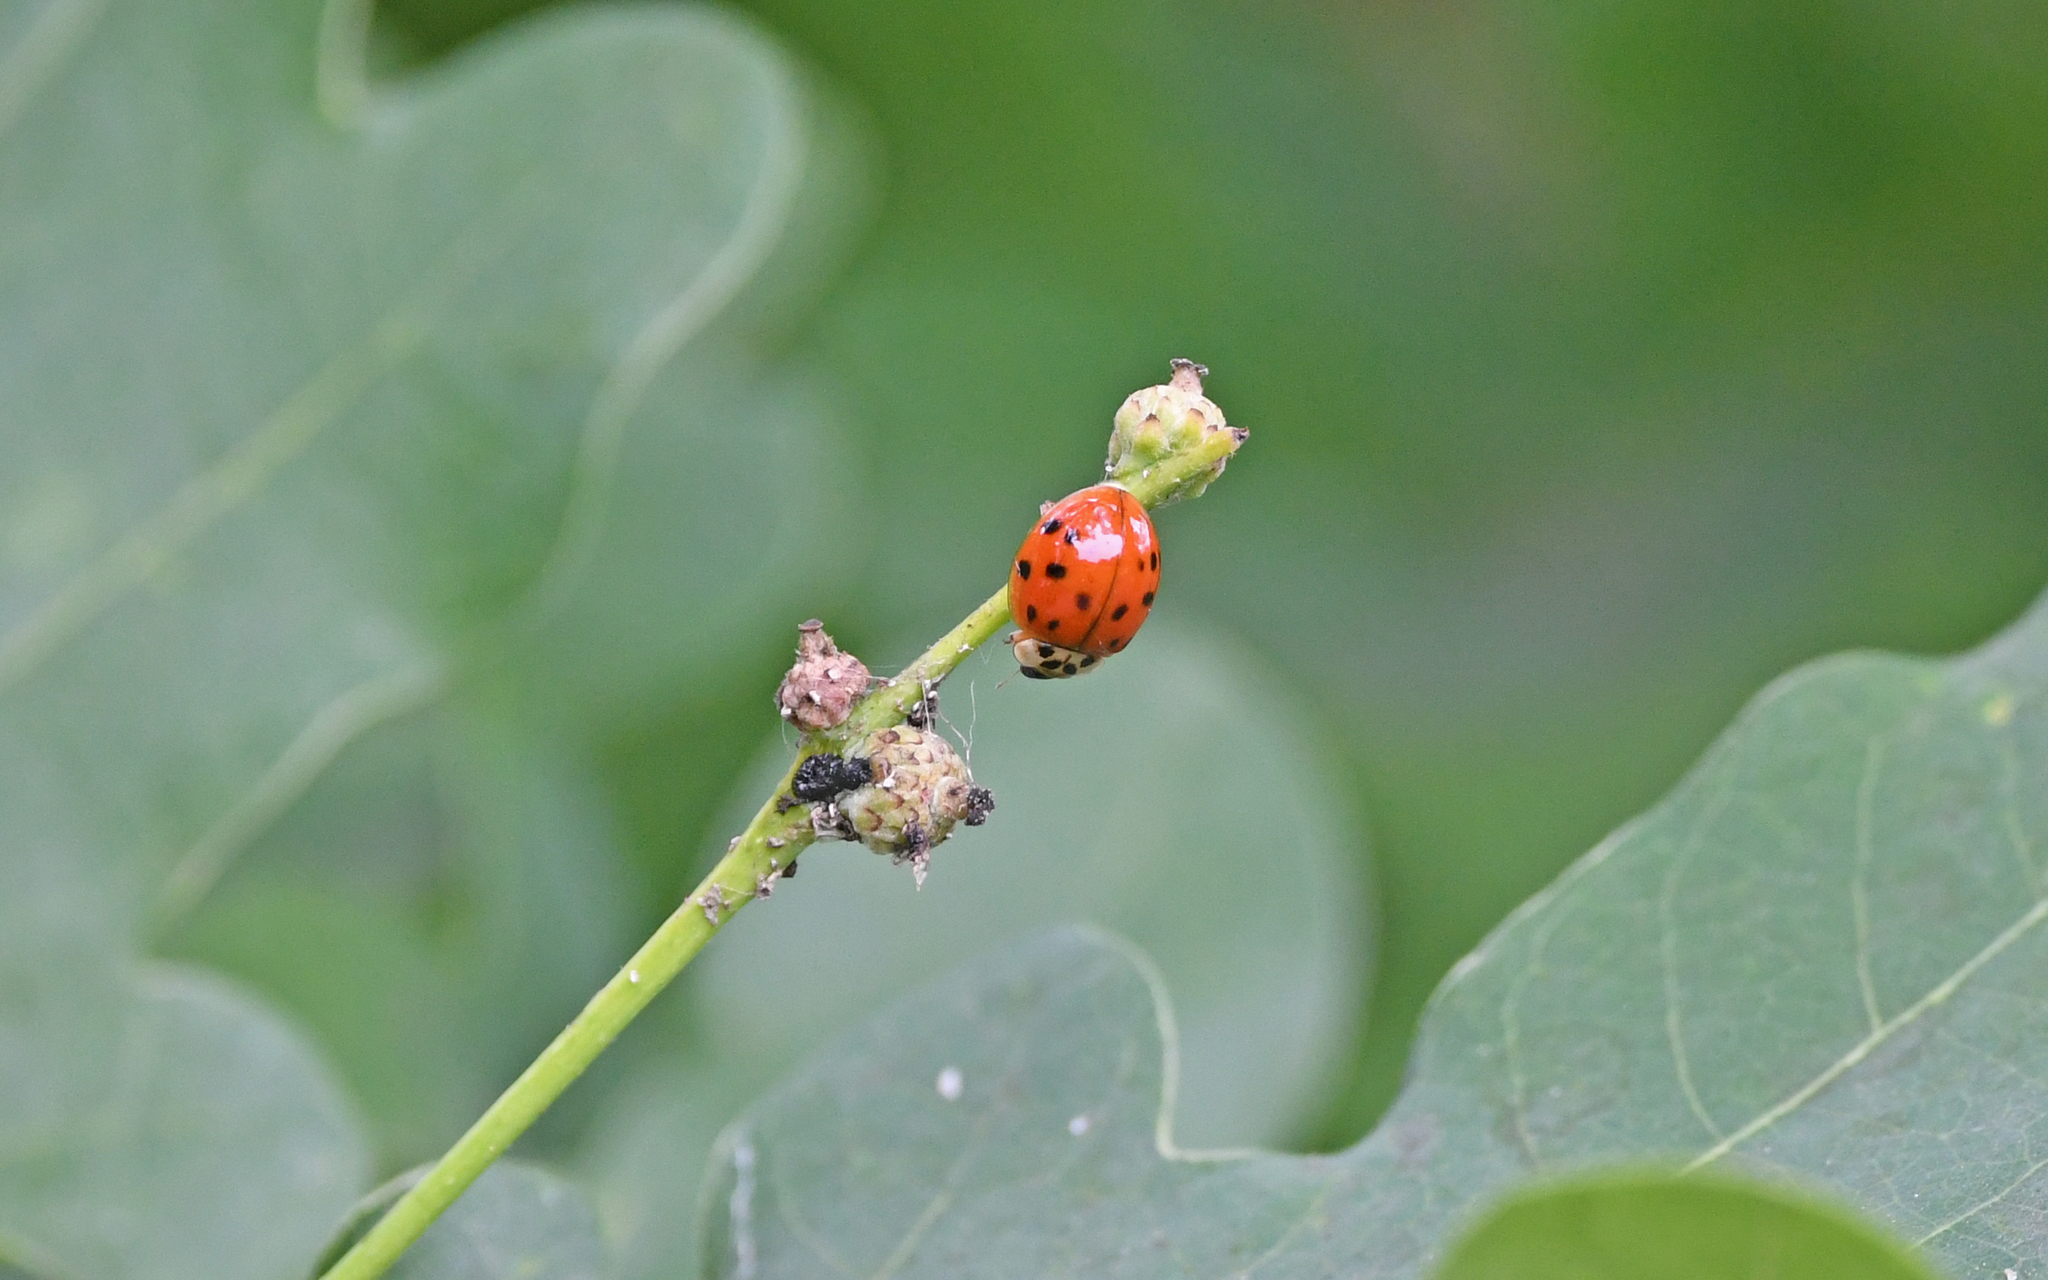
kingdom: Animalia
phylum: Arthropoda
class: Insecta
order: Coleoptera
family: Coccinellidae
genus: Harmonia
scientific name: Harmonia axyridis
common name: Harlequin ladybird
